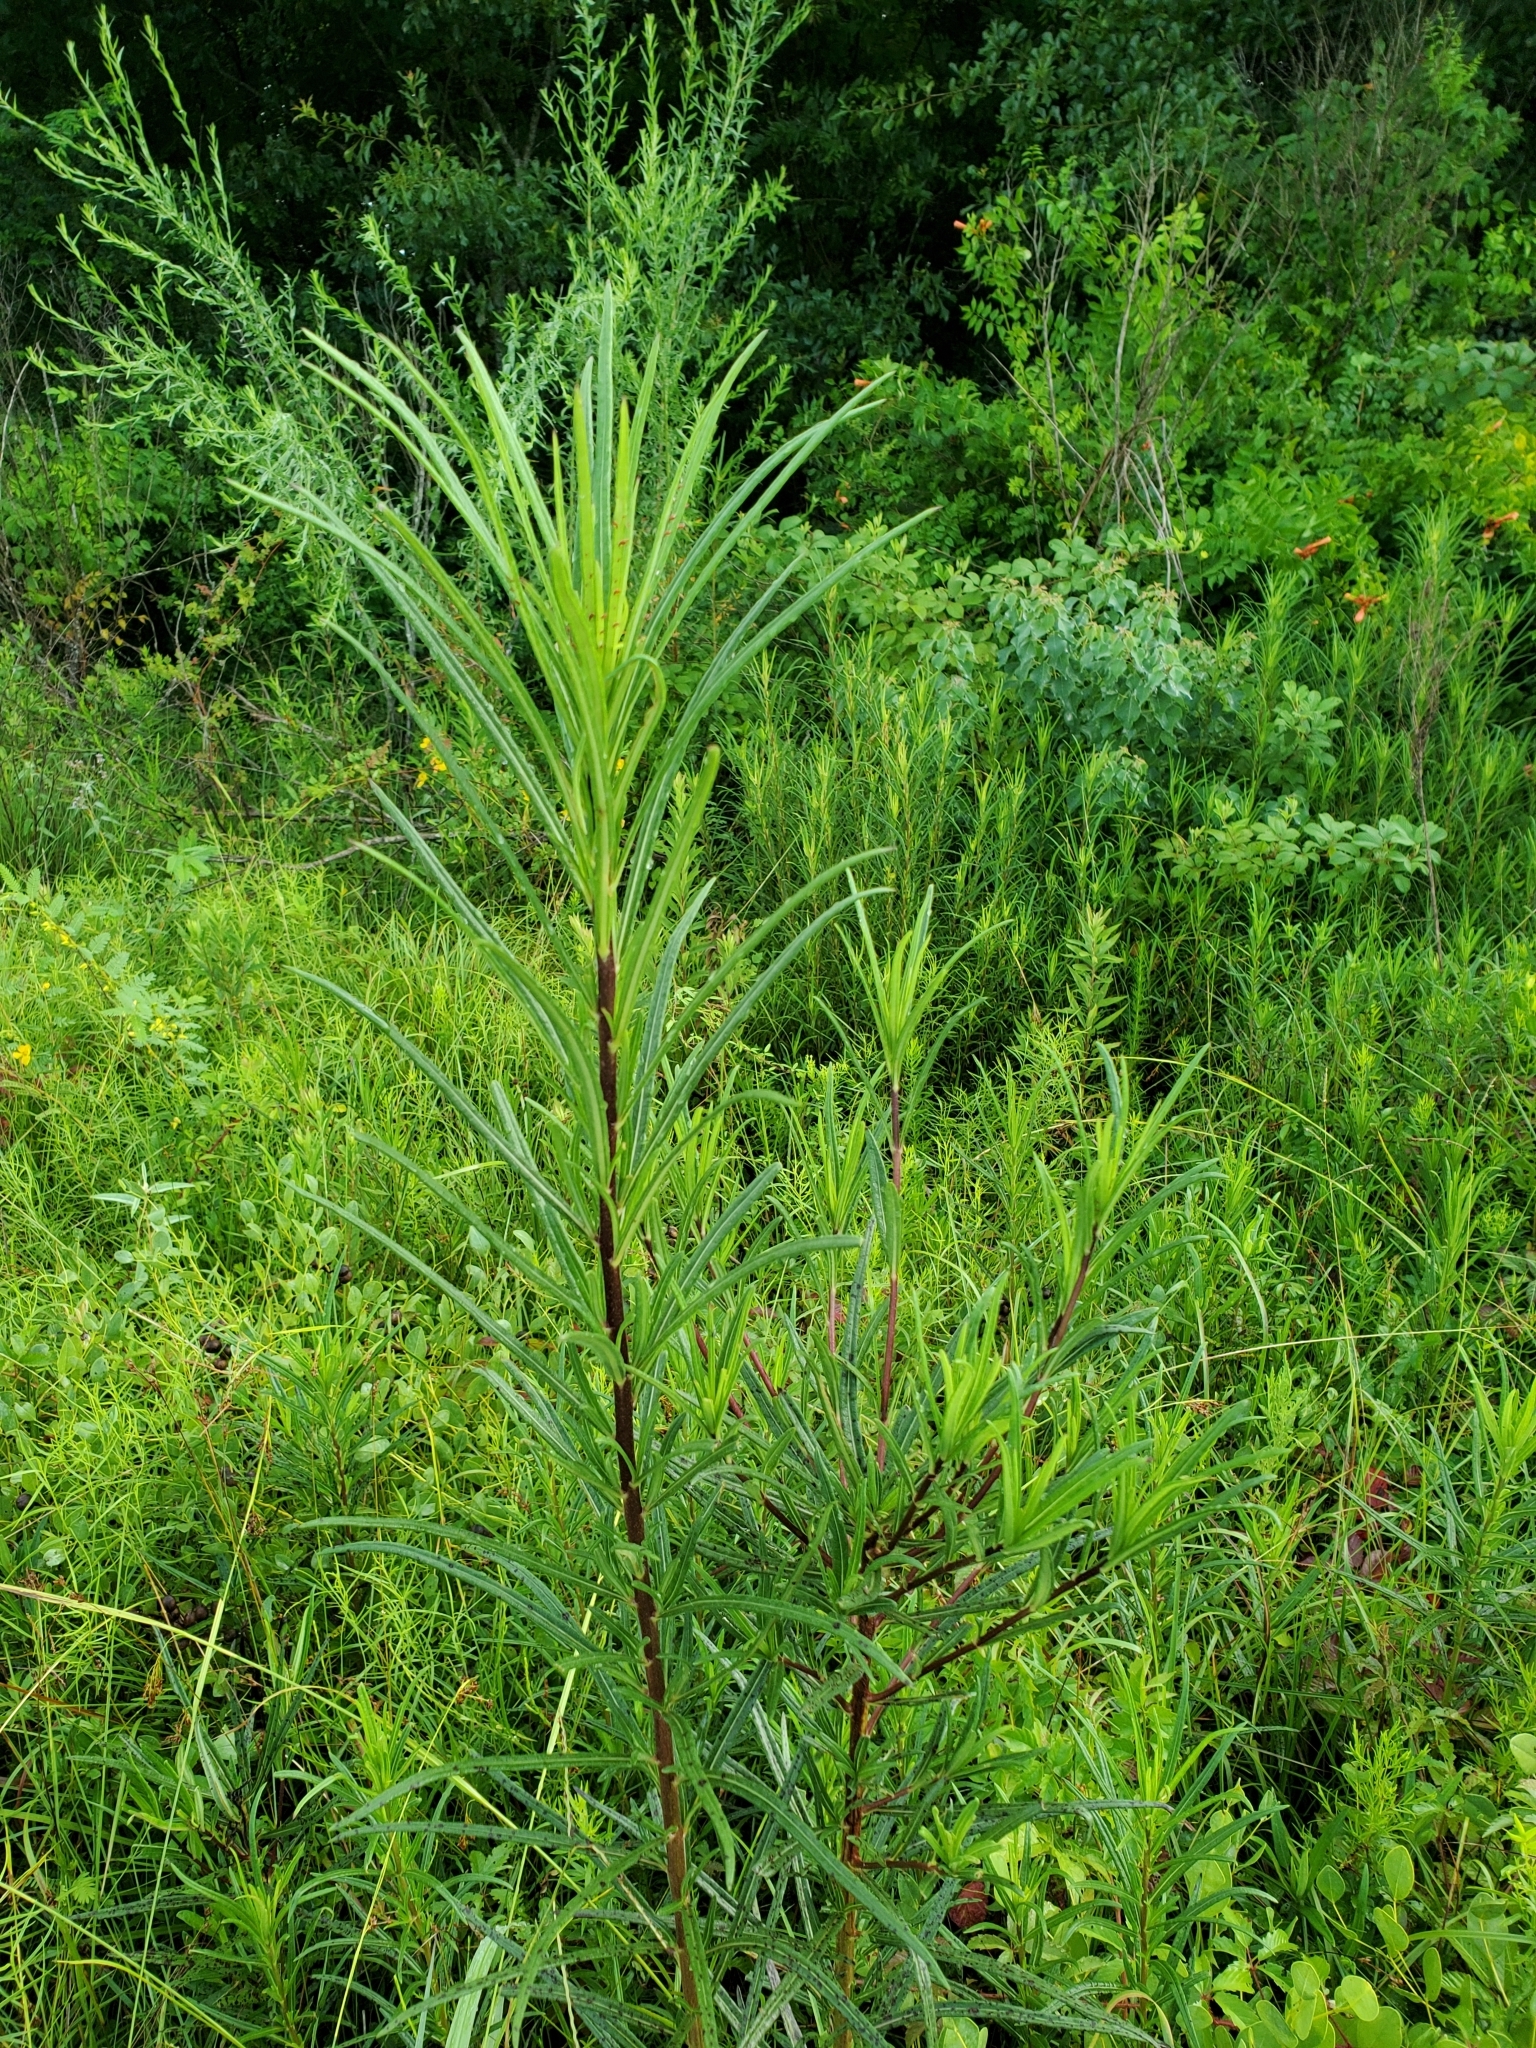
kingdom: Plantae
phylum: Tracheophyta
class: Magnoliopsida
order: Asterales
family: Asteraceae
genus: Helianthus
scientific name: Helianthus angustifolius
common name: Swamp sunflower
